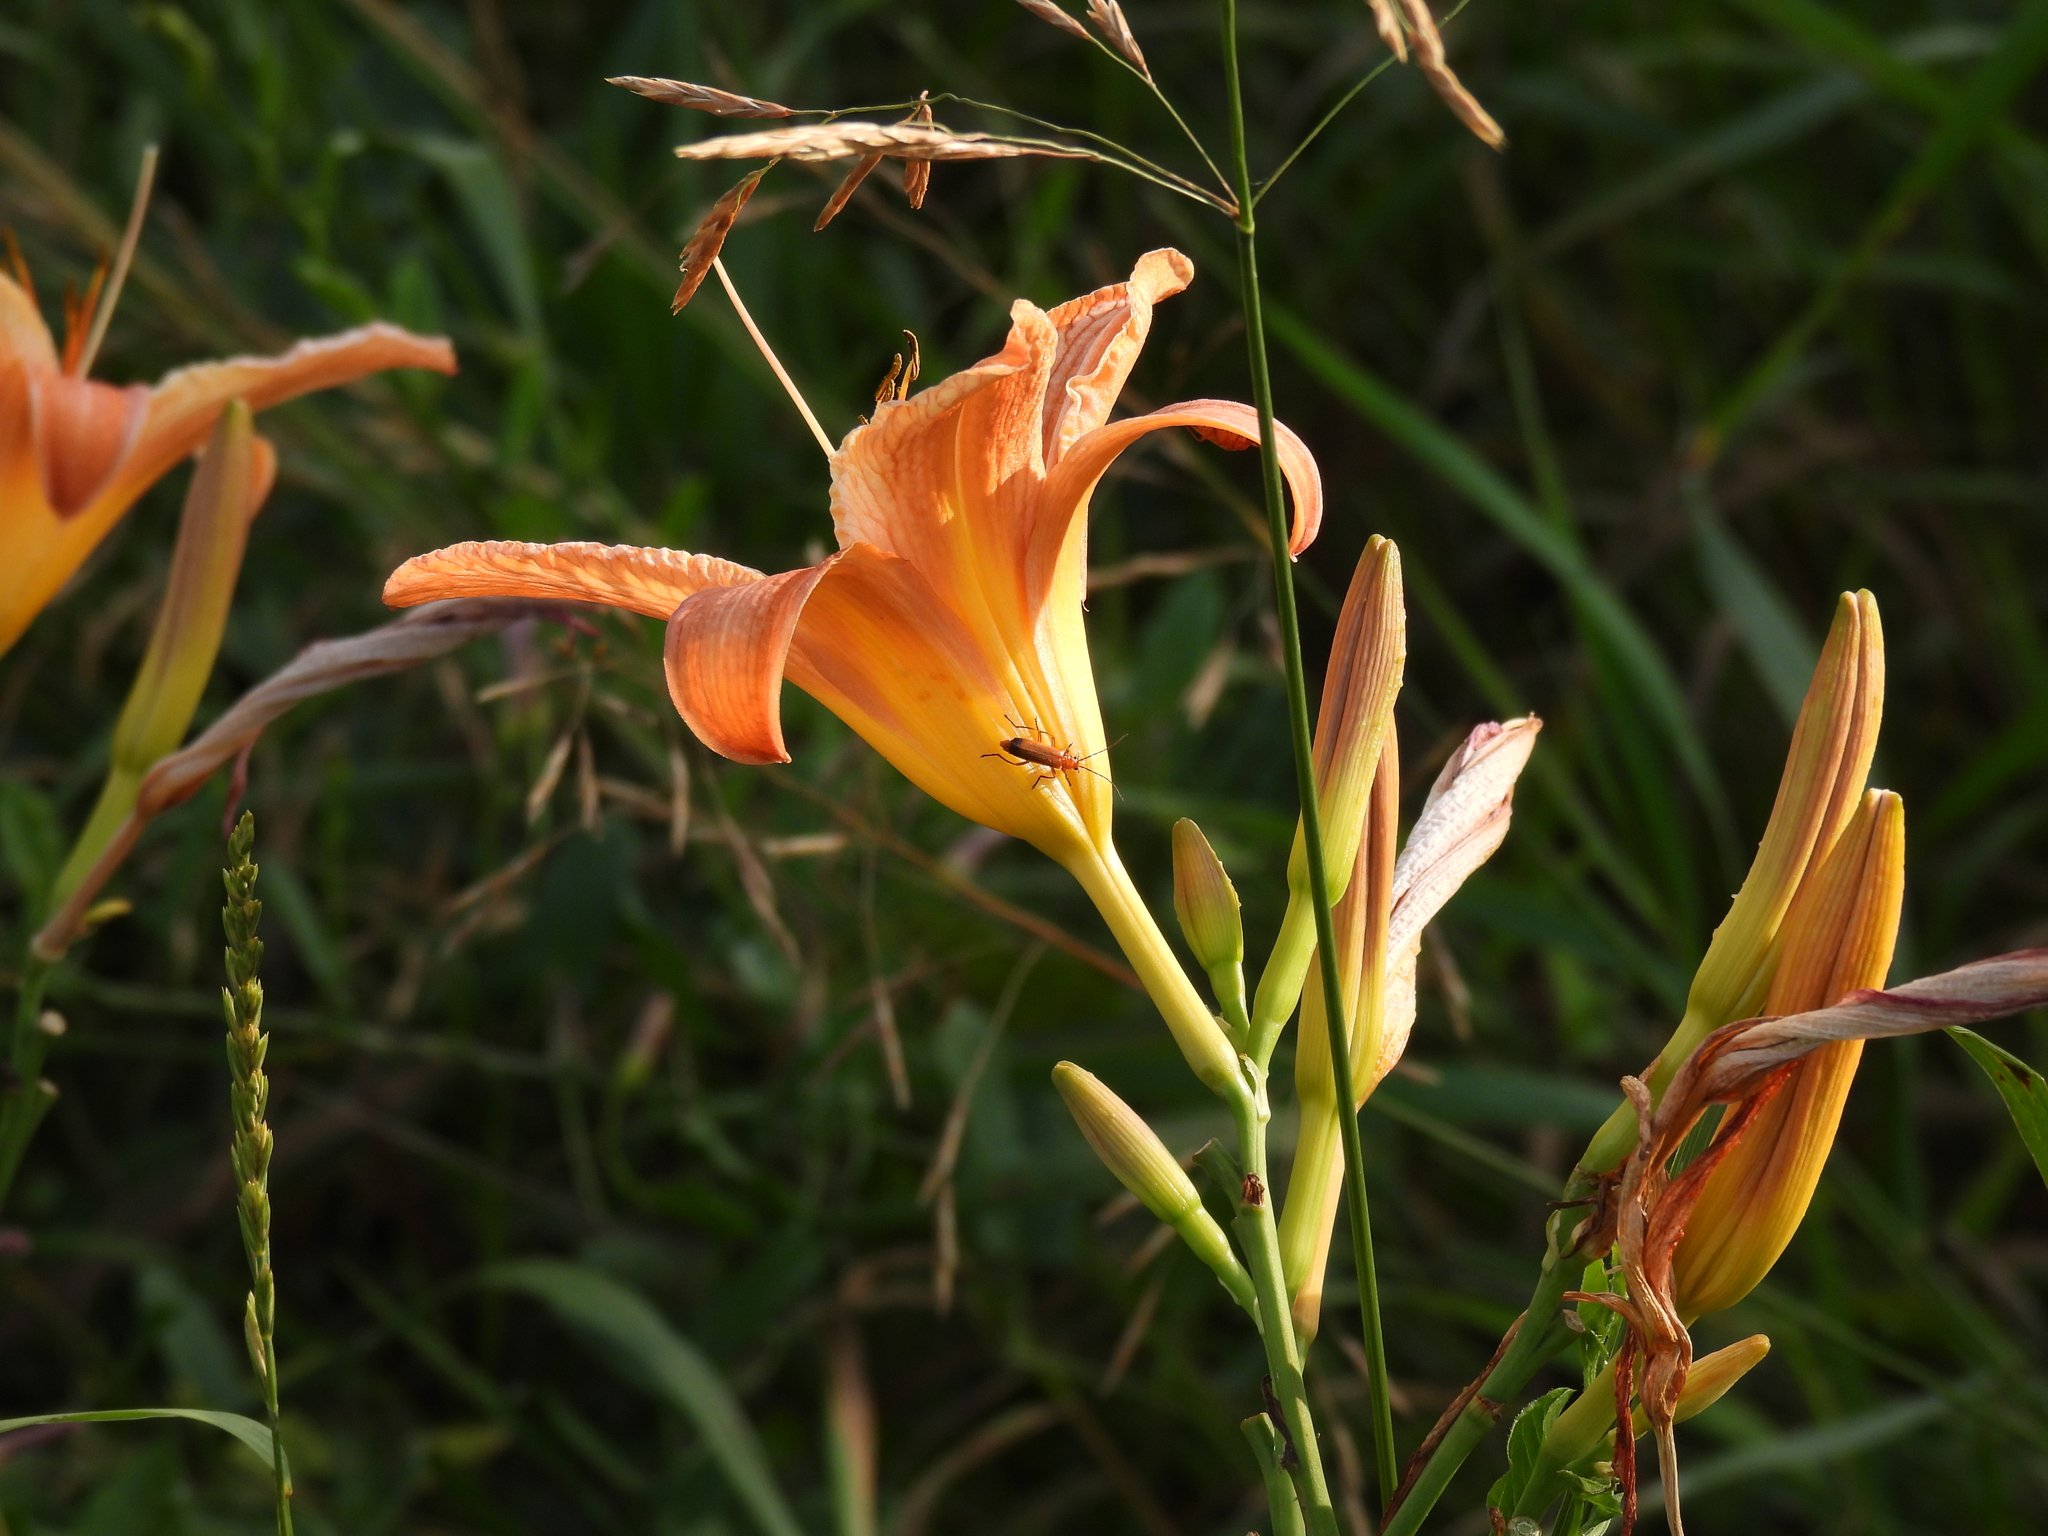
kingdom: Animalia
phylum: Arthropoda
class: Insecta
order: Coleoptera
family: Cantharidae
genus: Rhagonycha
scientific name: Rhagonycha fulva
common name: Common red soldier beetle
